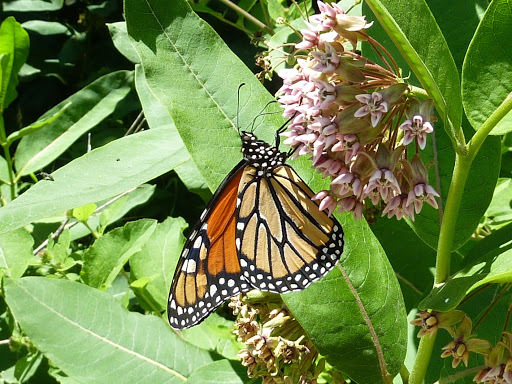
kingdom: Animalia
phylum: Arthropoda
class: Insecta
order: Lepidoptera
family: Nymphalidae
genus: Danaus
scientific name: Danaus plexippus
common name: Monarch
